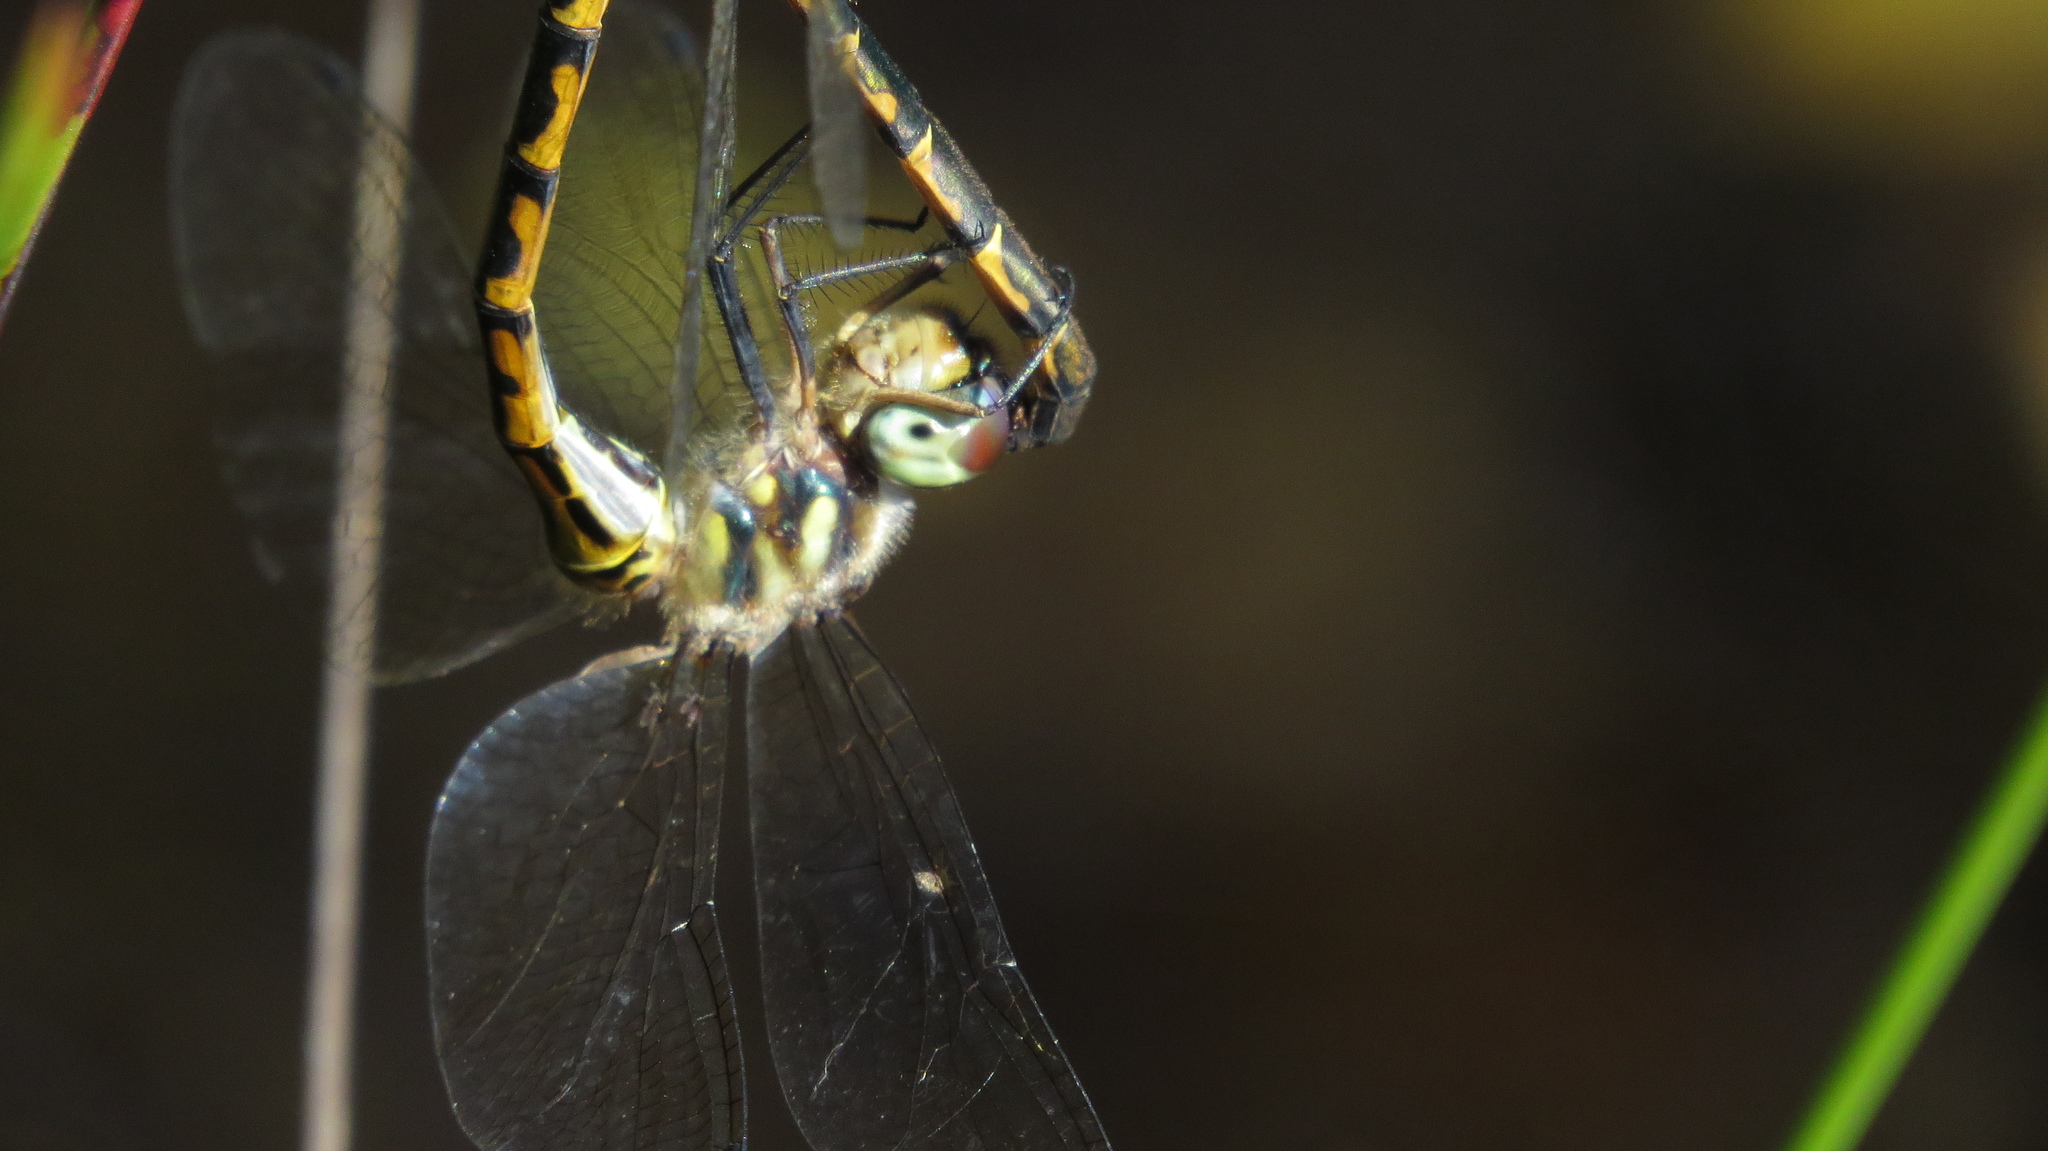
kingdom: Animalia
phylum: Arthropoda
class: Insecta
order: Odonata
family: Corduliidae
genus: Hemicordulia
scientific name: Hemicordulia australiae
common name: Sentry dragonfly
